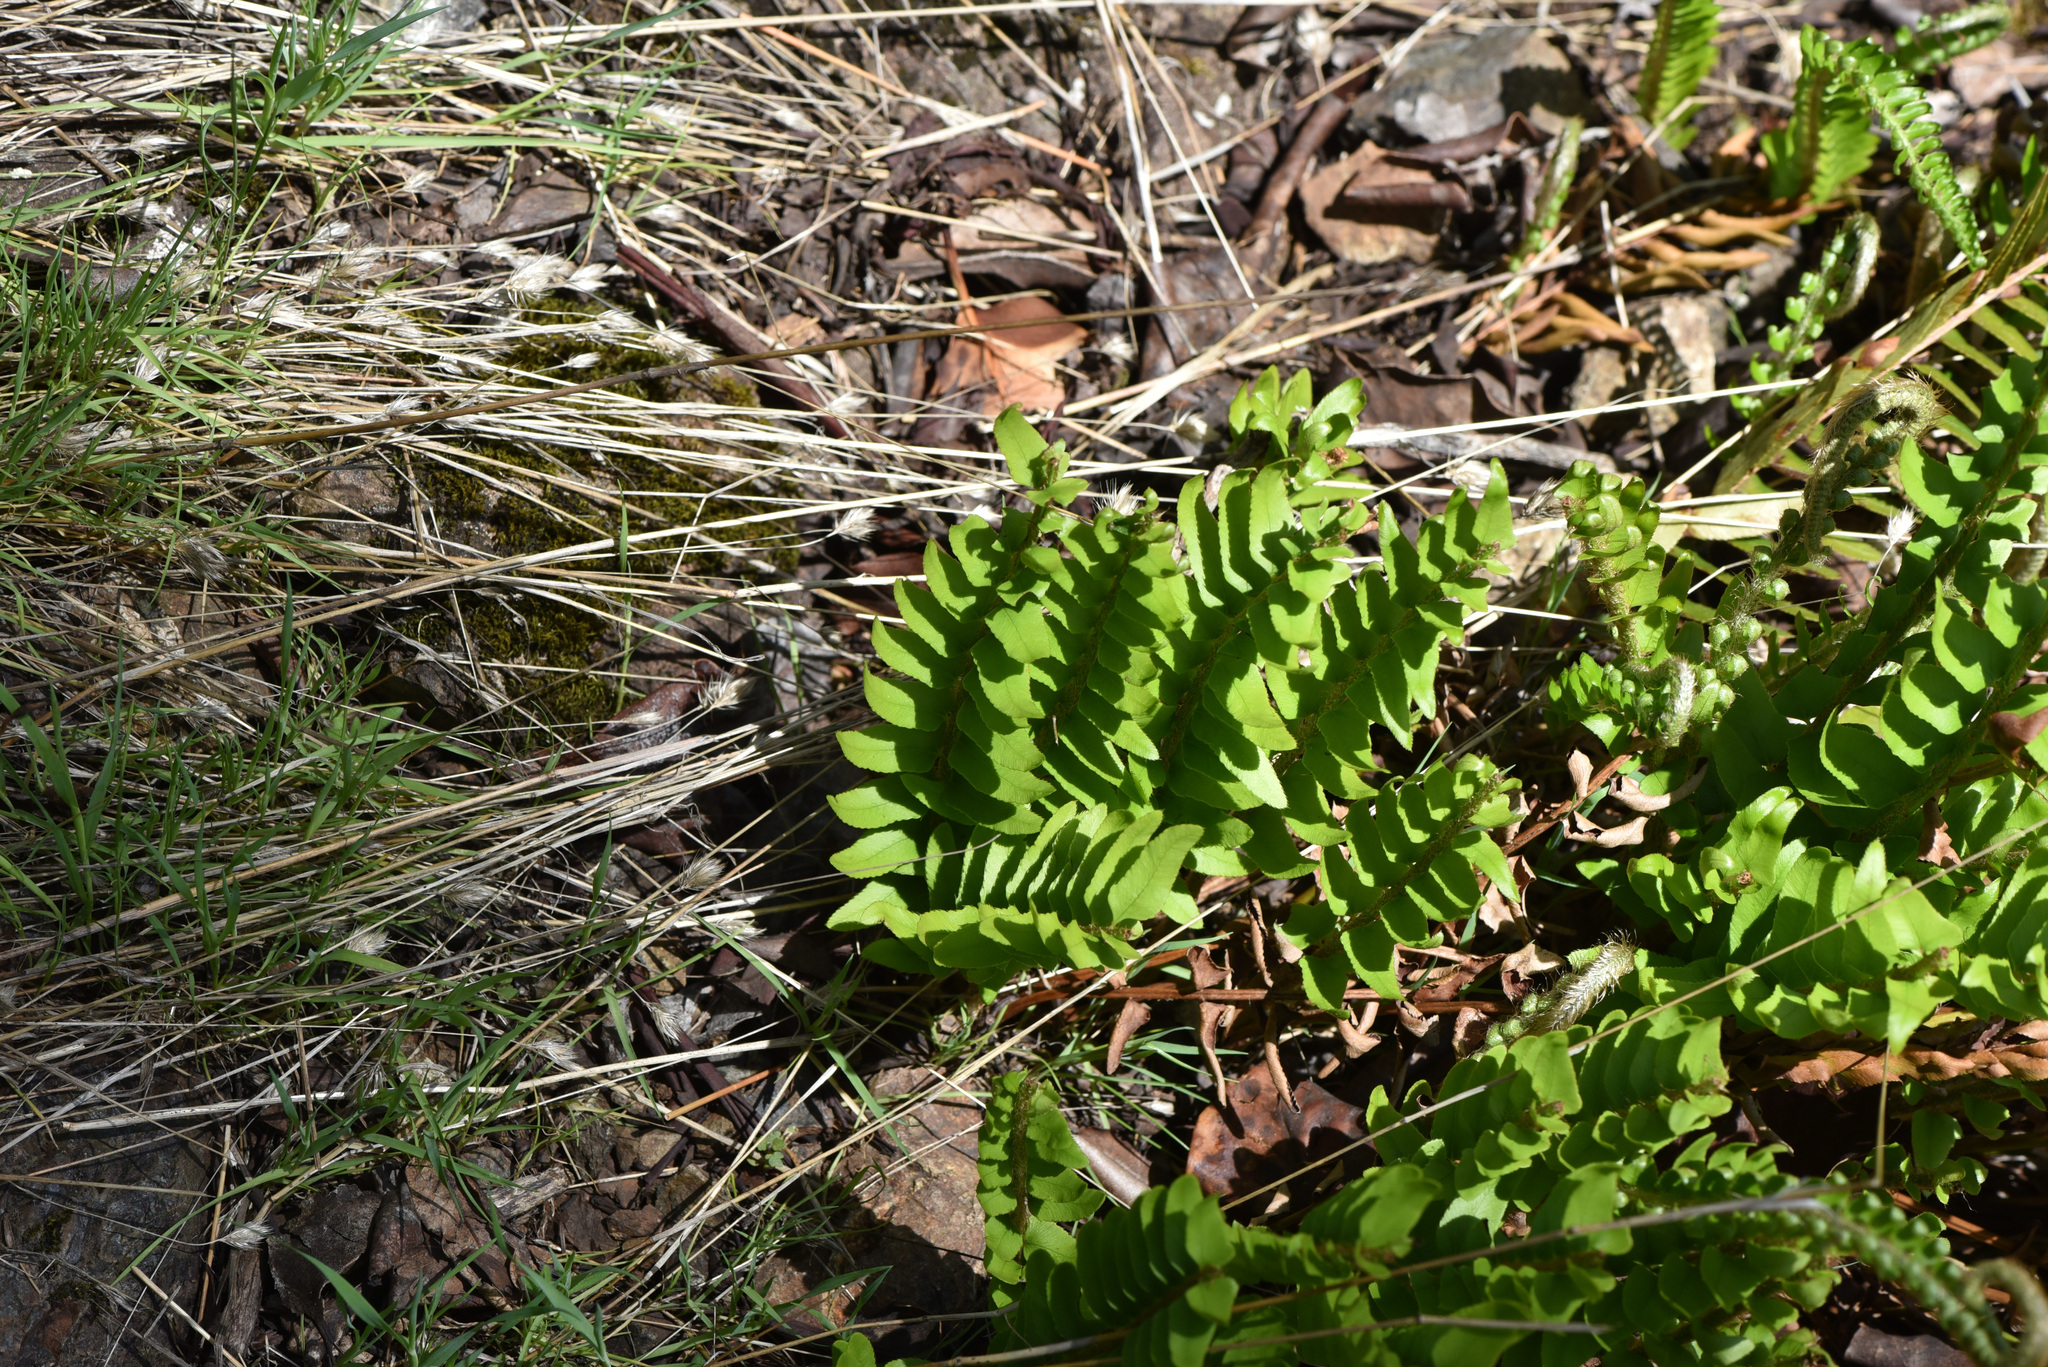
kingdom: Plantae
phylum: Tracheophyta
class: Polypodiopsida
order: Polypodiales
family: Dryopteridaceae
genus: Polystichum
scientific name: Polystichum imbricans
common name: Dwarf western sword fern
